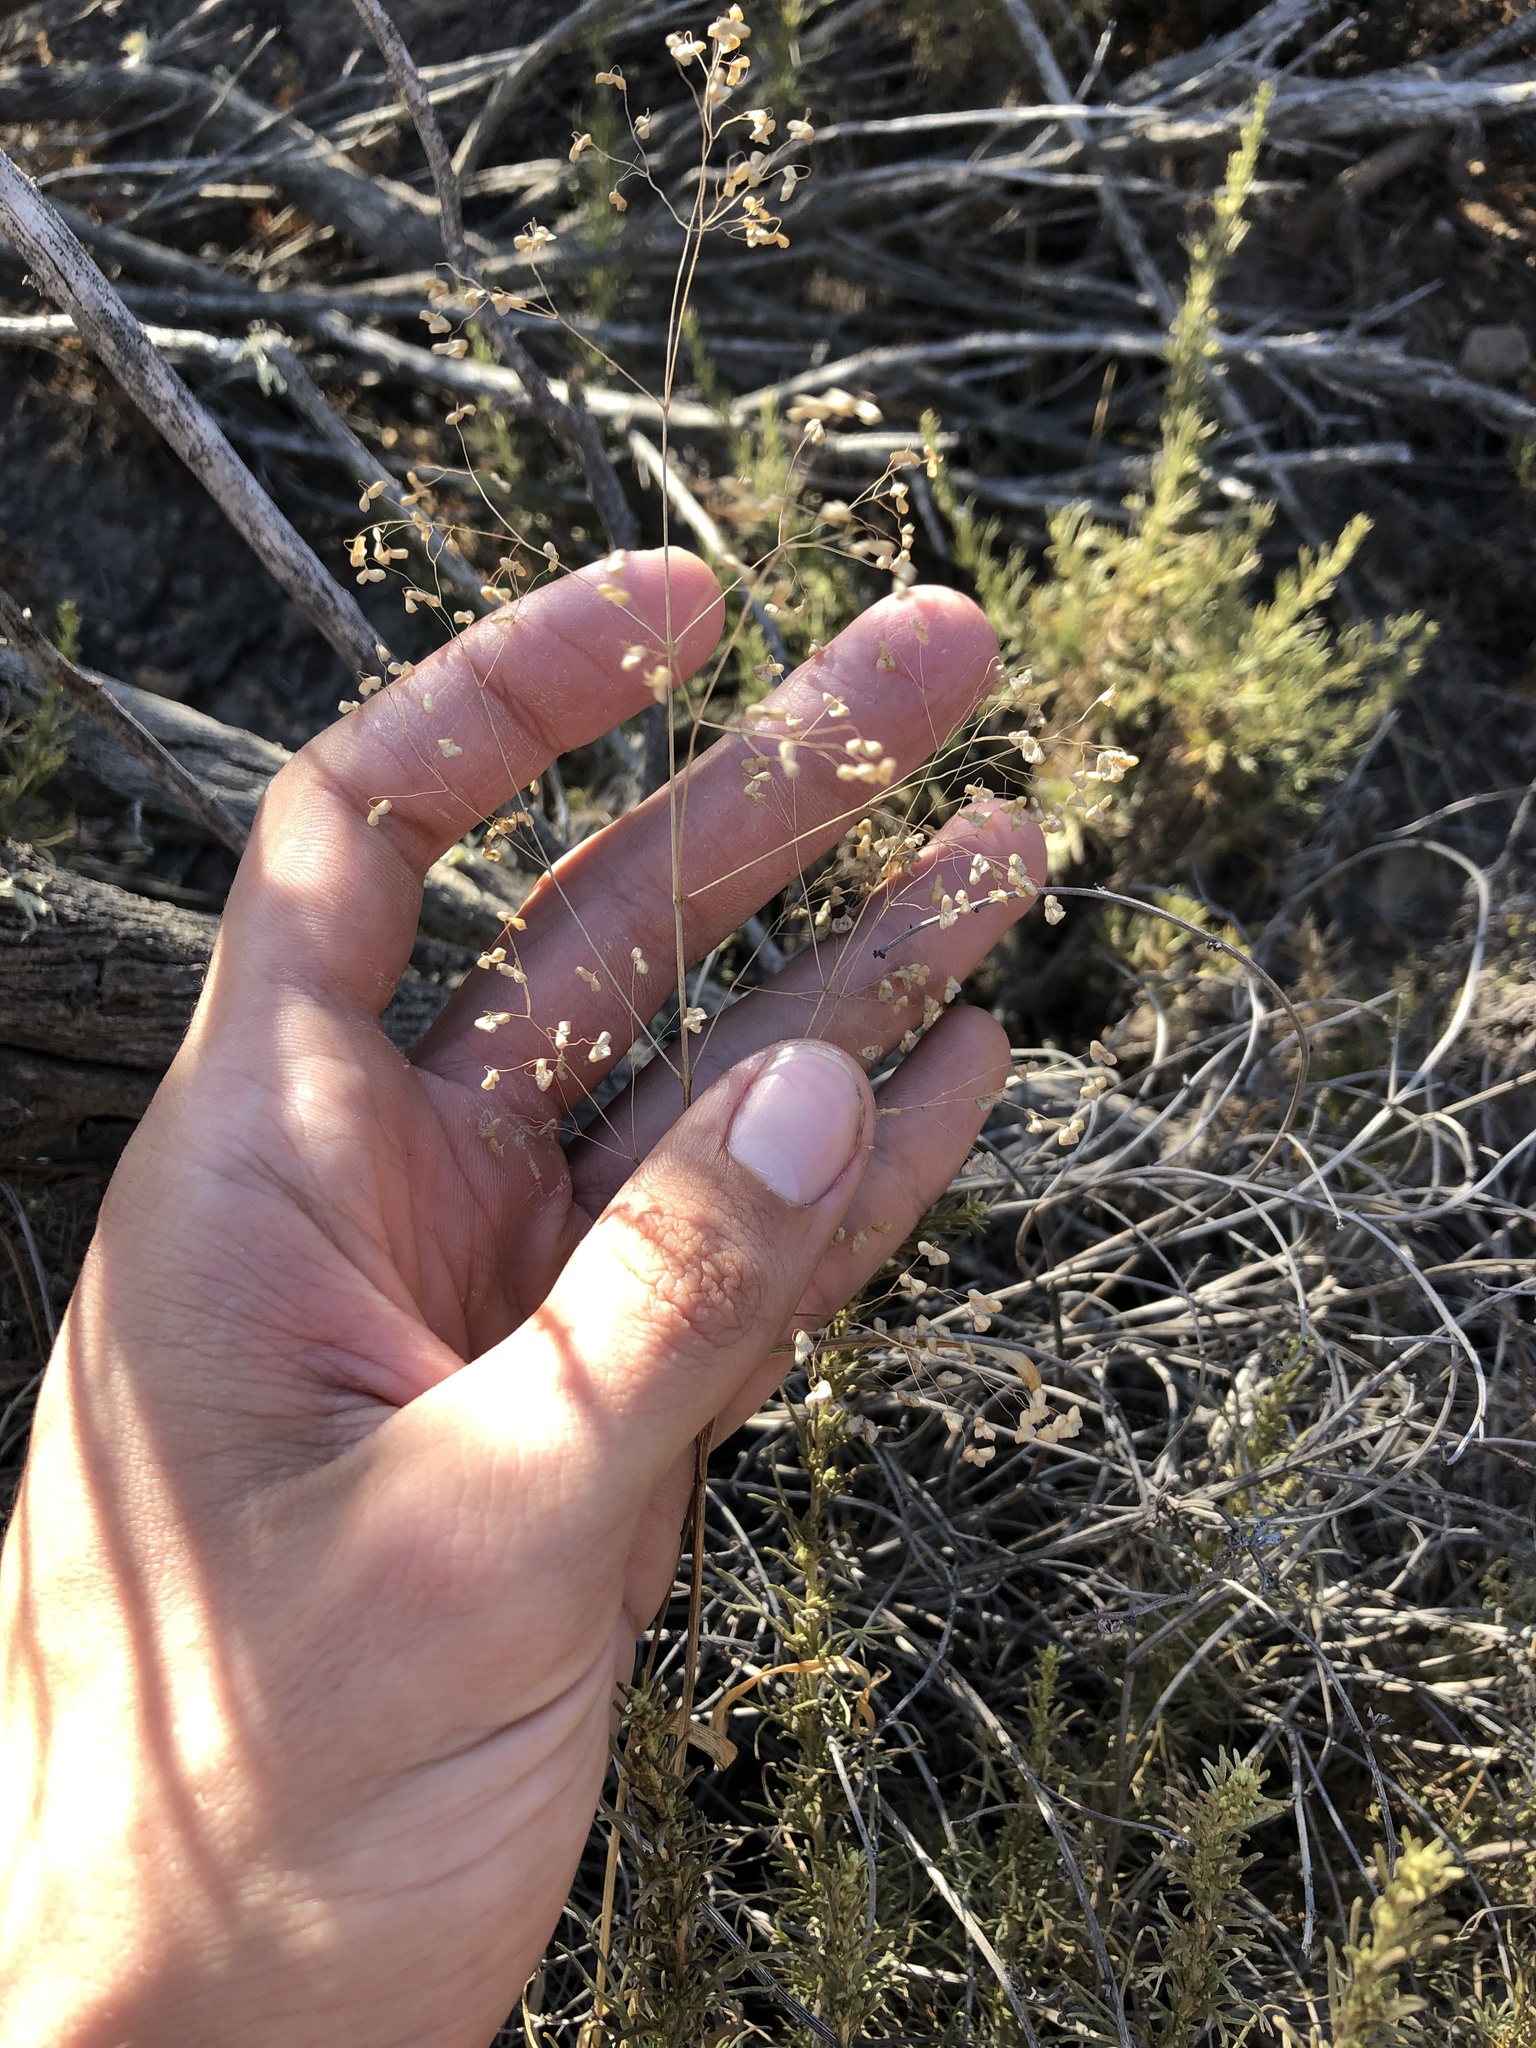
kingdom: Plantae
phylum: Tracheophyta
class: Liliopsida
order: Poales
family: Poaceae
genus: Briza
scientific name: Briza minor
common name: Lesser quaking-grass
